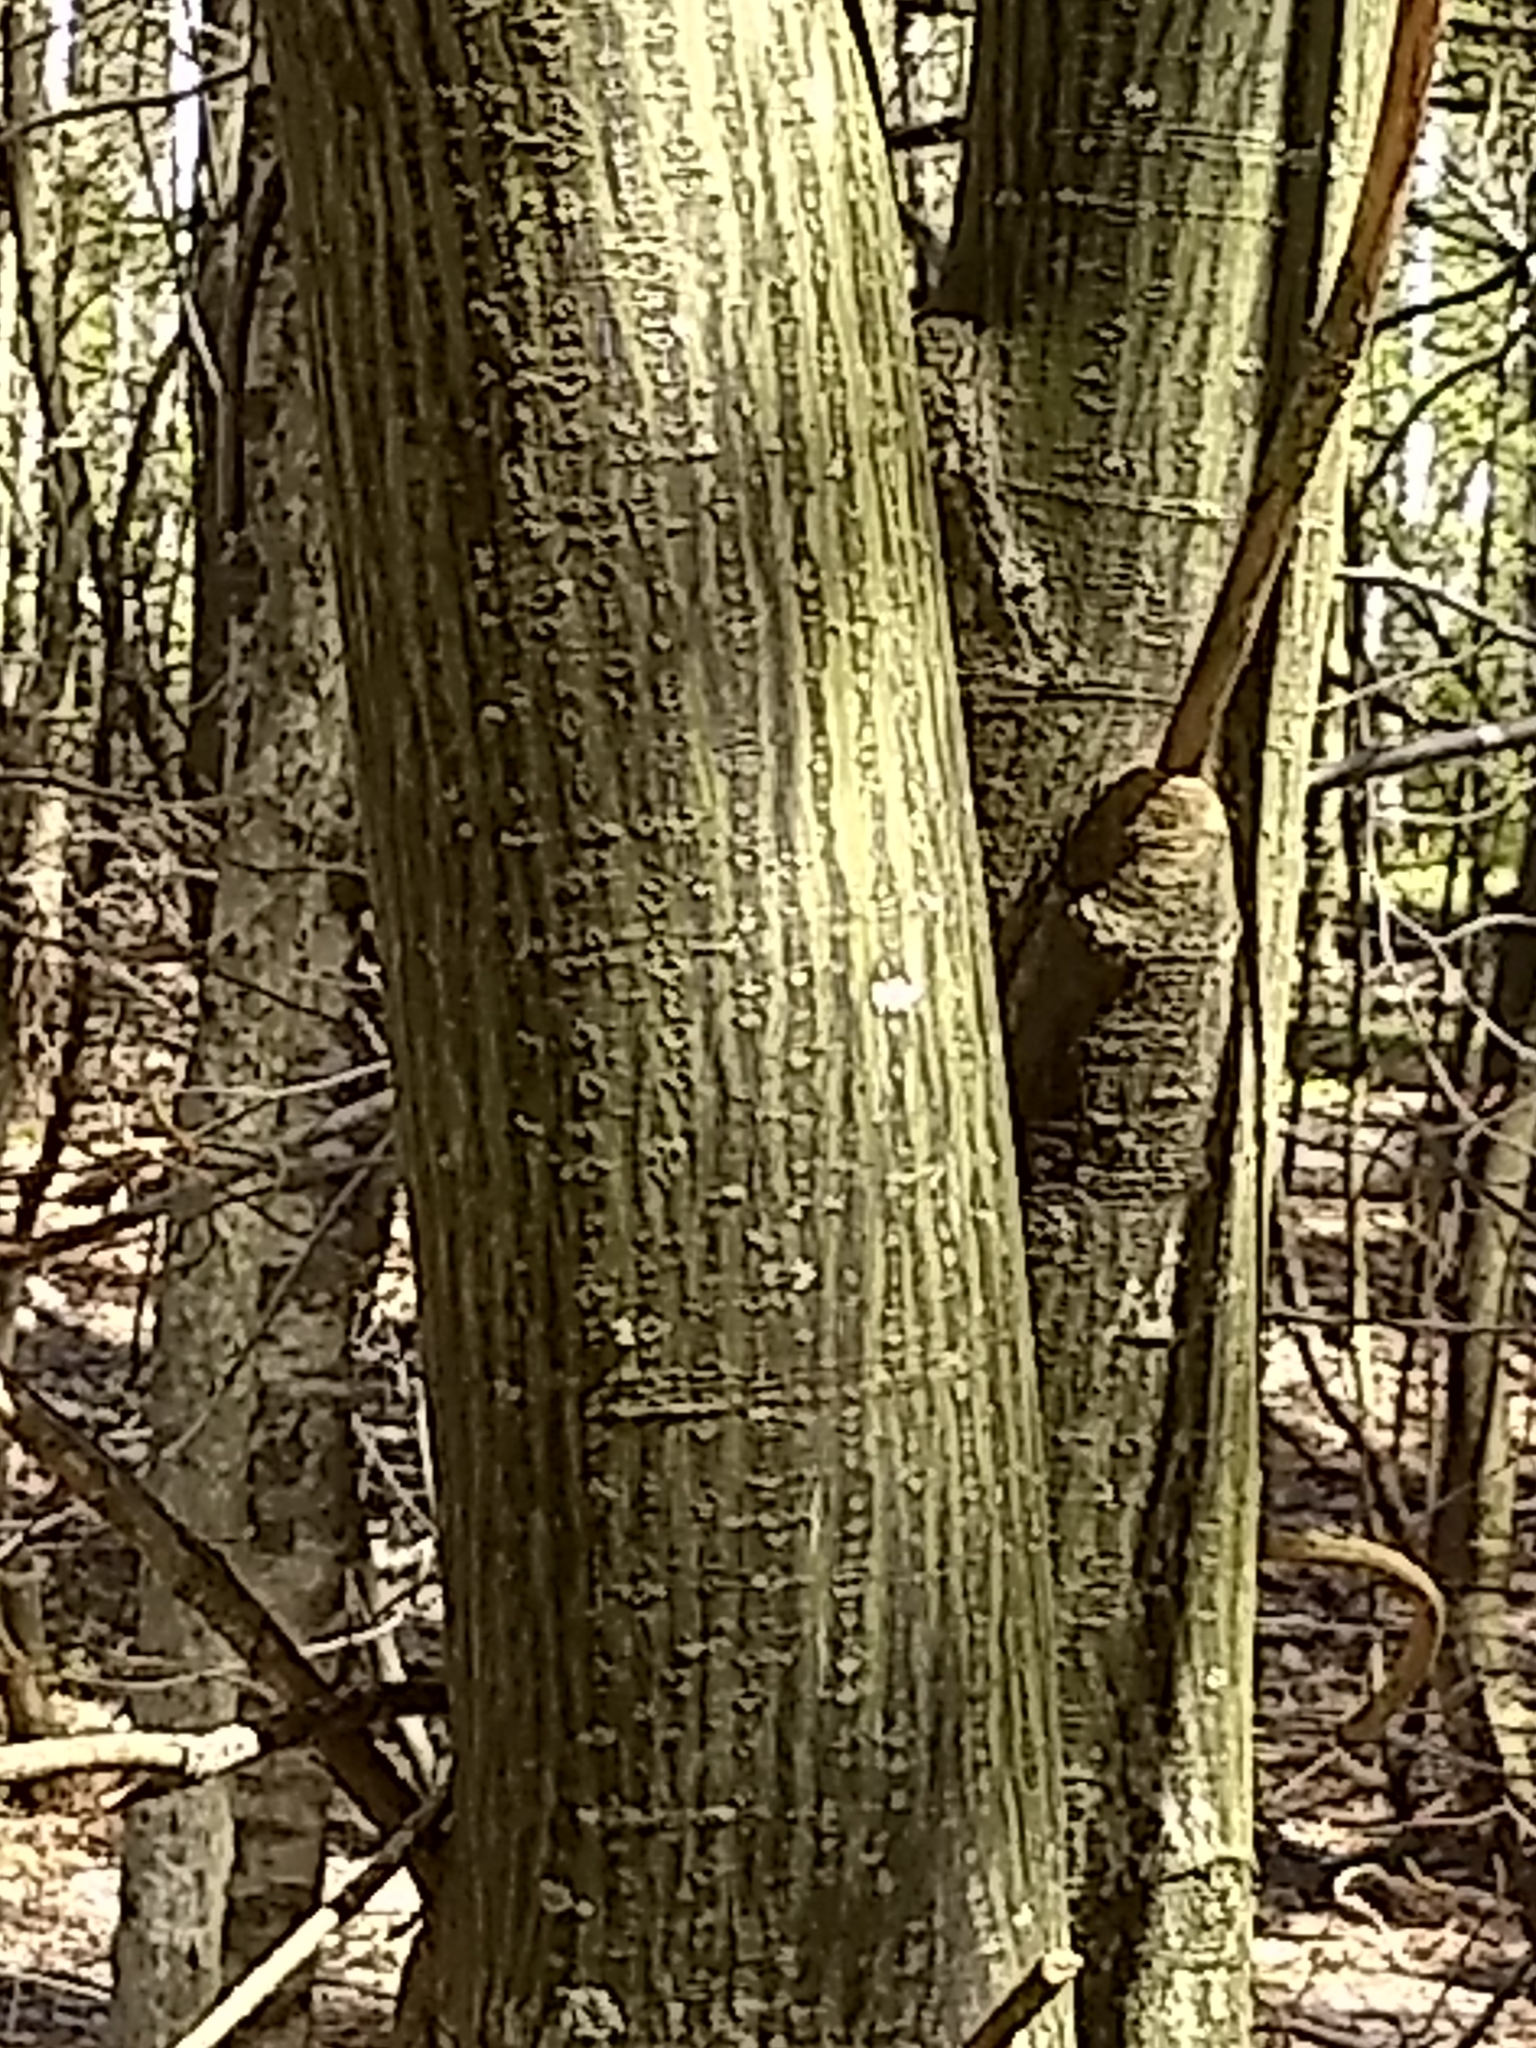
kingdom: Plantae
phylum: Tracheophyta
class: Magnoliopsida
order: Sapindales
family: Sapindaceae
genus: Acer
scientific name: Acer pensylvanicum
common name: Moosewood
